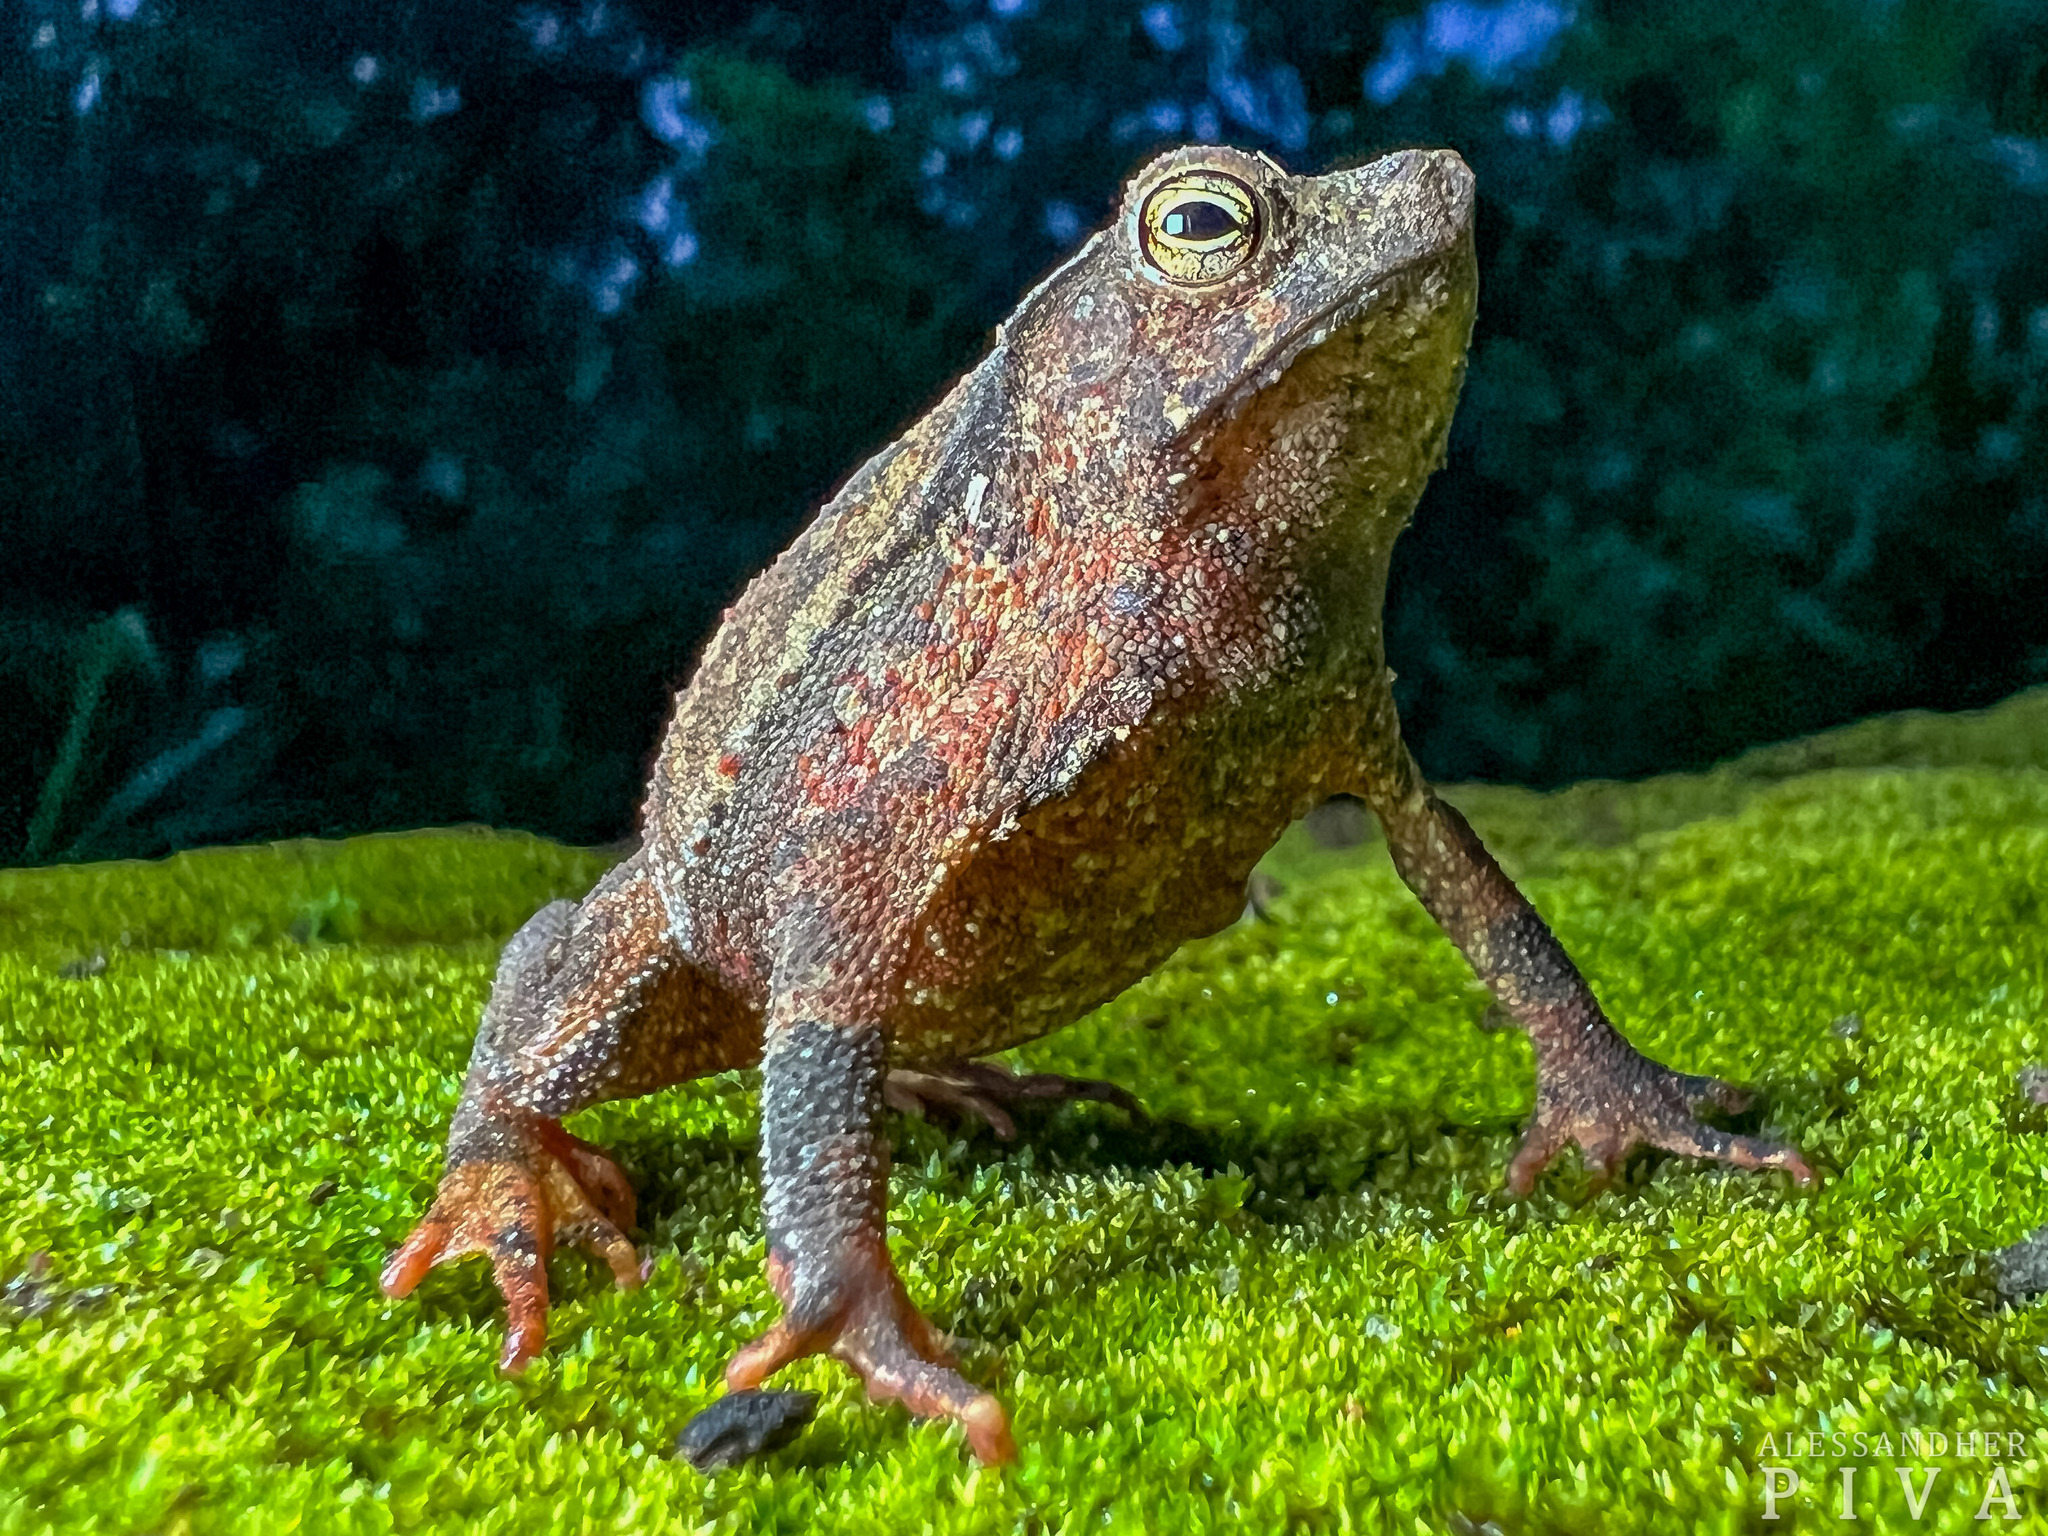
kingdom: Animalia
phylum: Chordata
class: Amphibia
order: Anura
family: Bufonidae
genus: Rhinella
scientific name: Rhinella hoogmoedi
